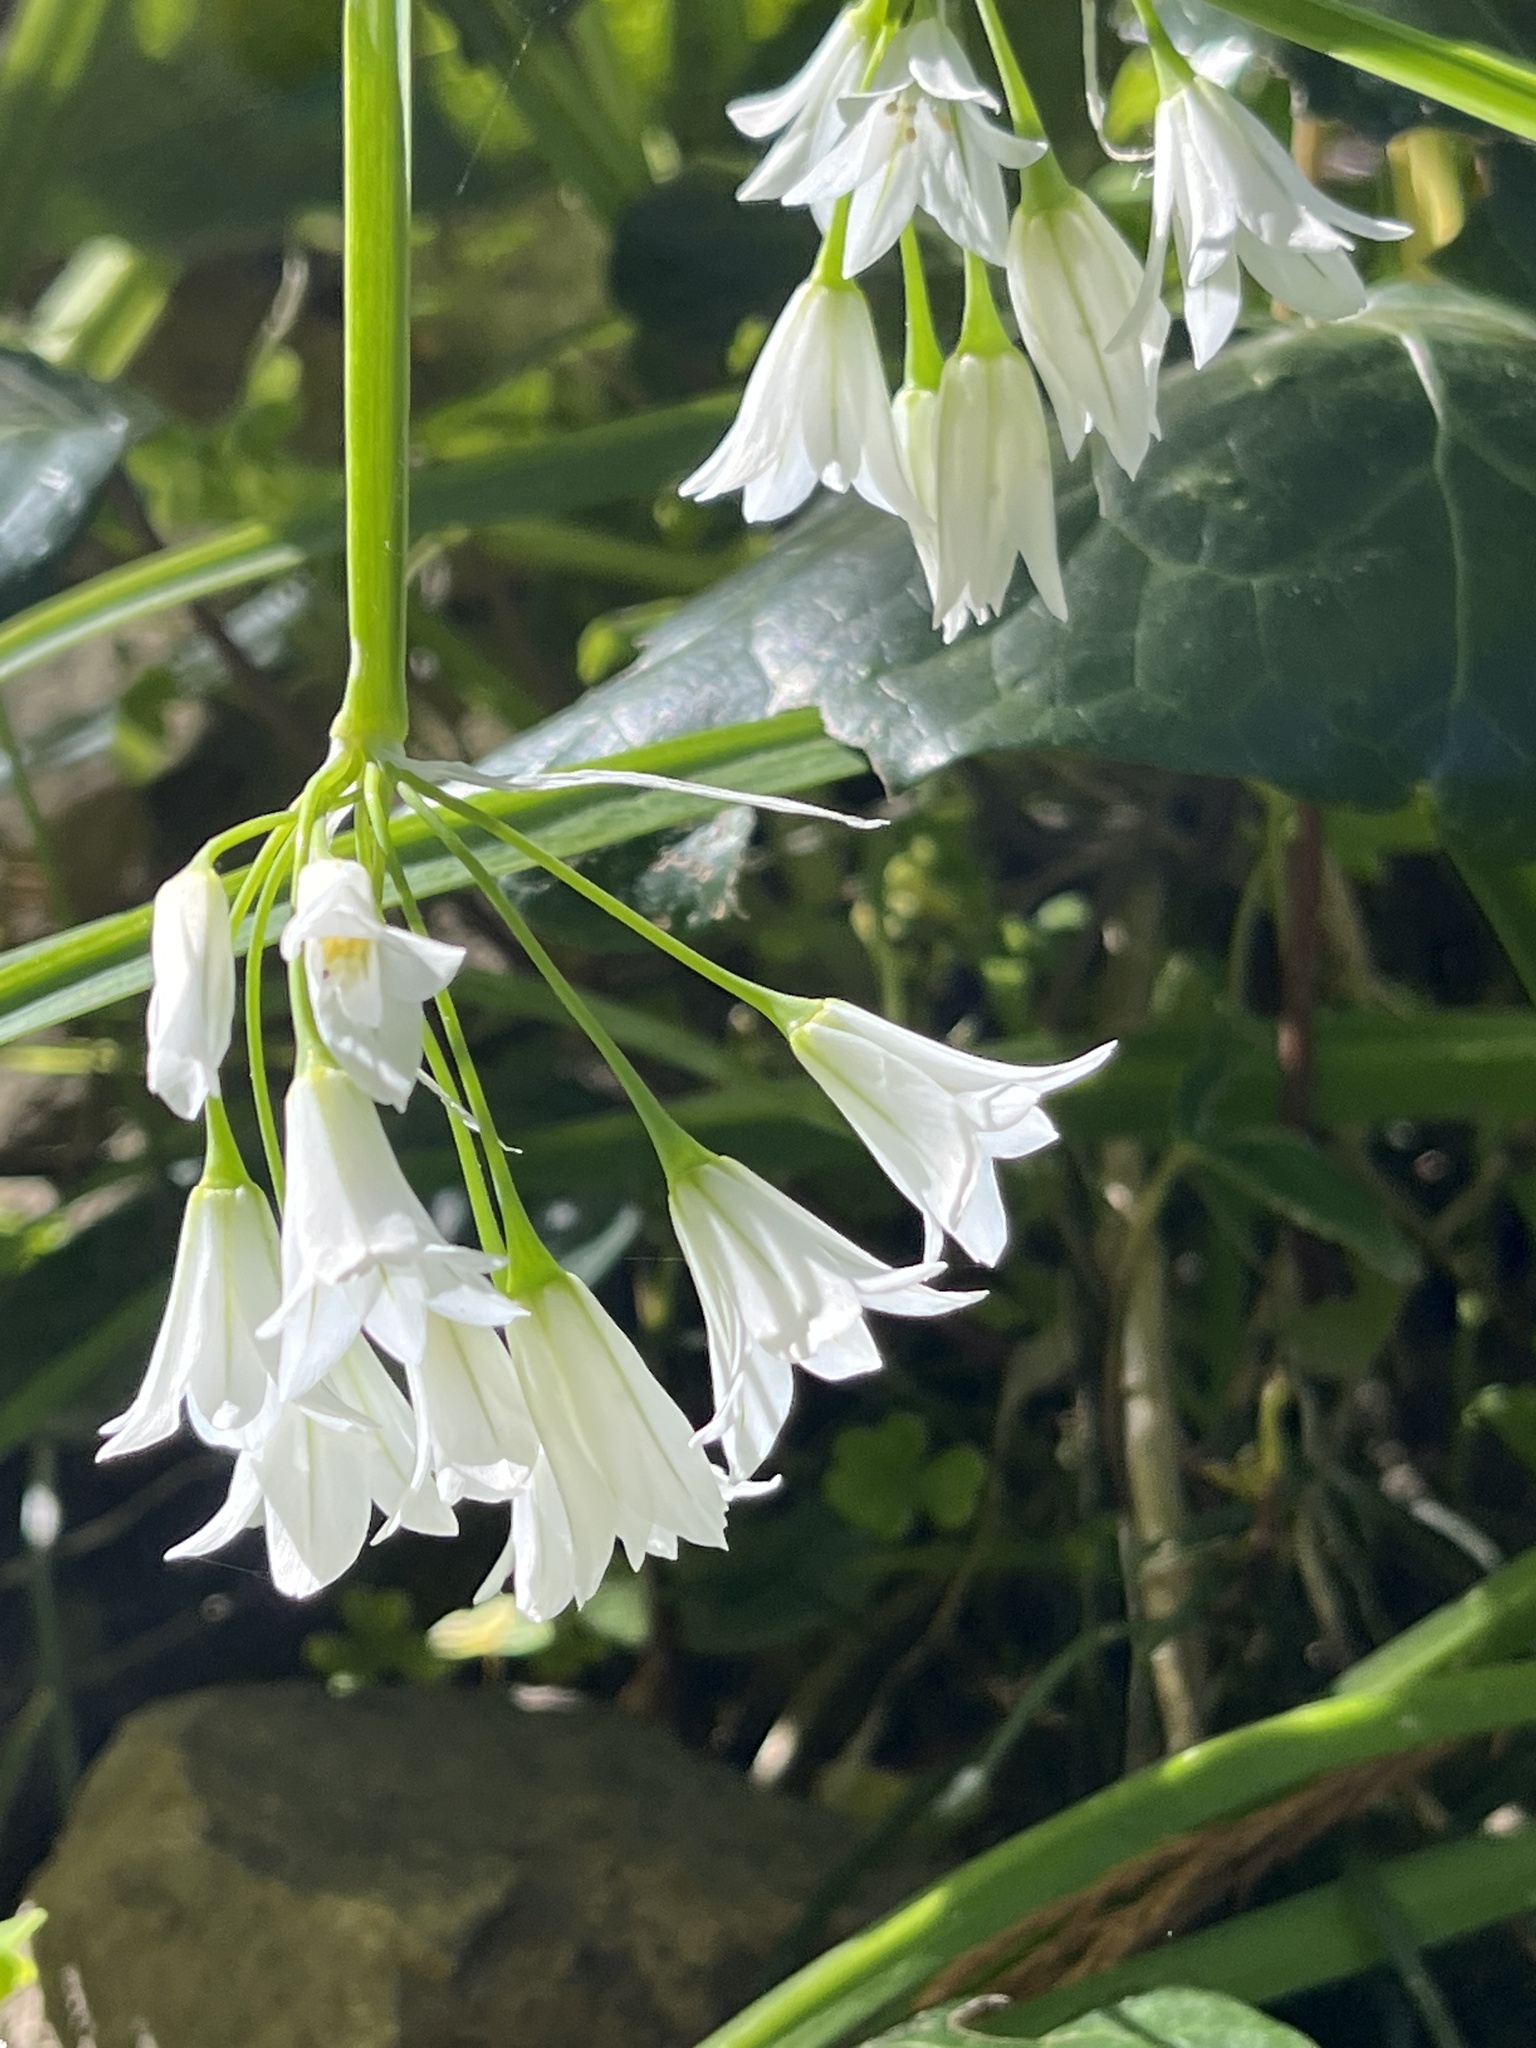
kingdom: Plantae
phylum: Tracheophyta
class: Liliopsida
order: Asparagales
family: Amaryllidaceae
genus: Allium
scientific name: Allium triquetrum
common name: Three-cornered garlic
